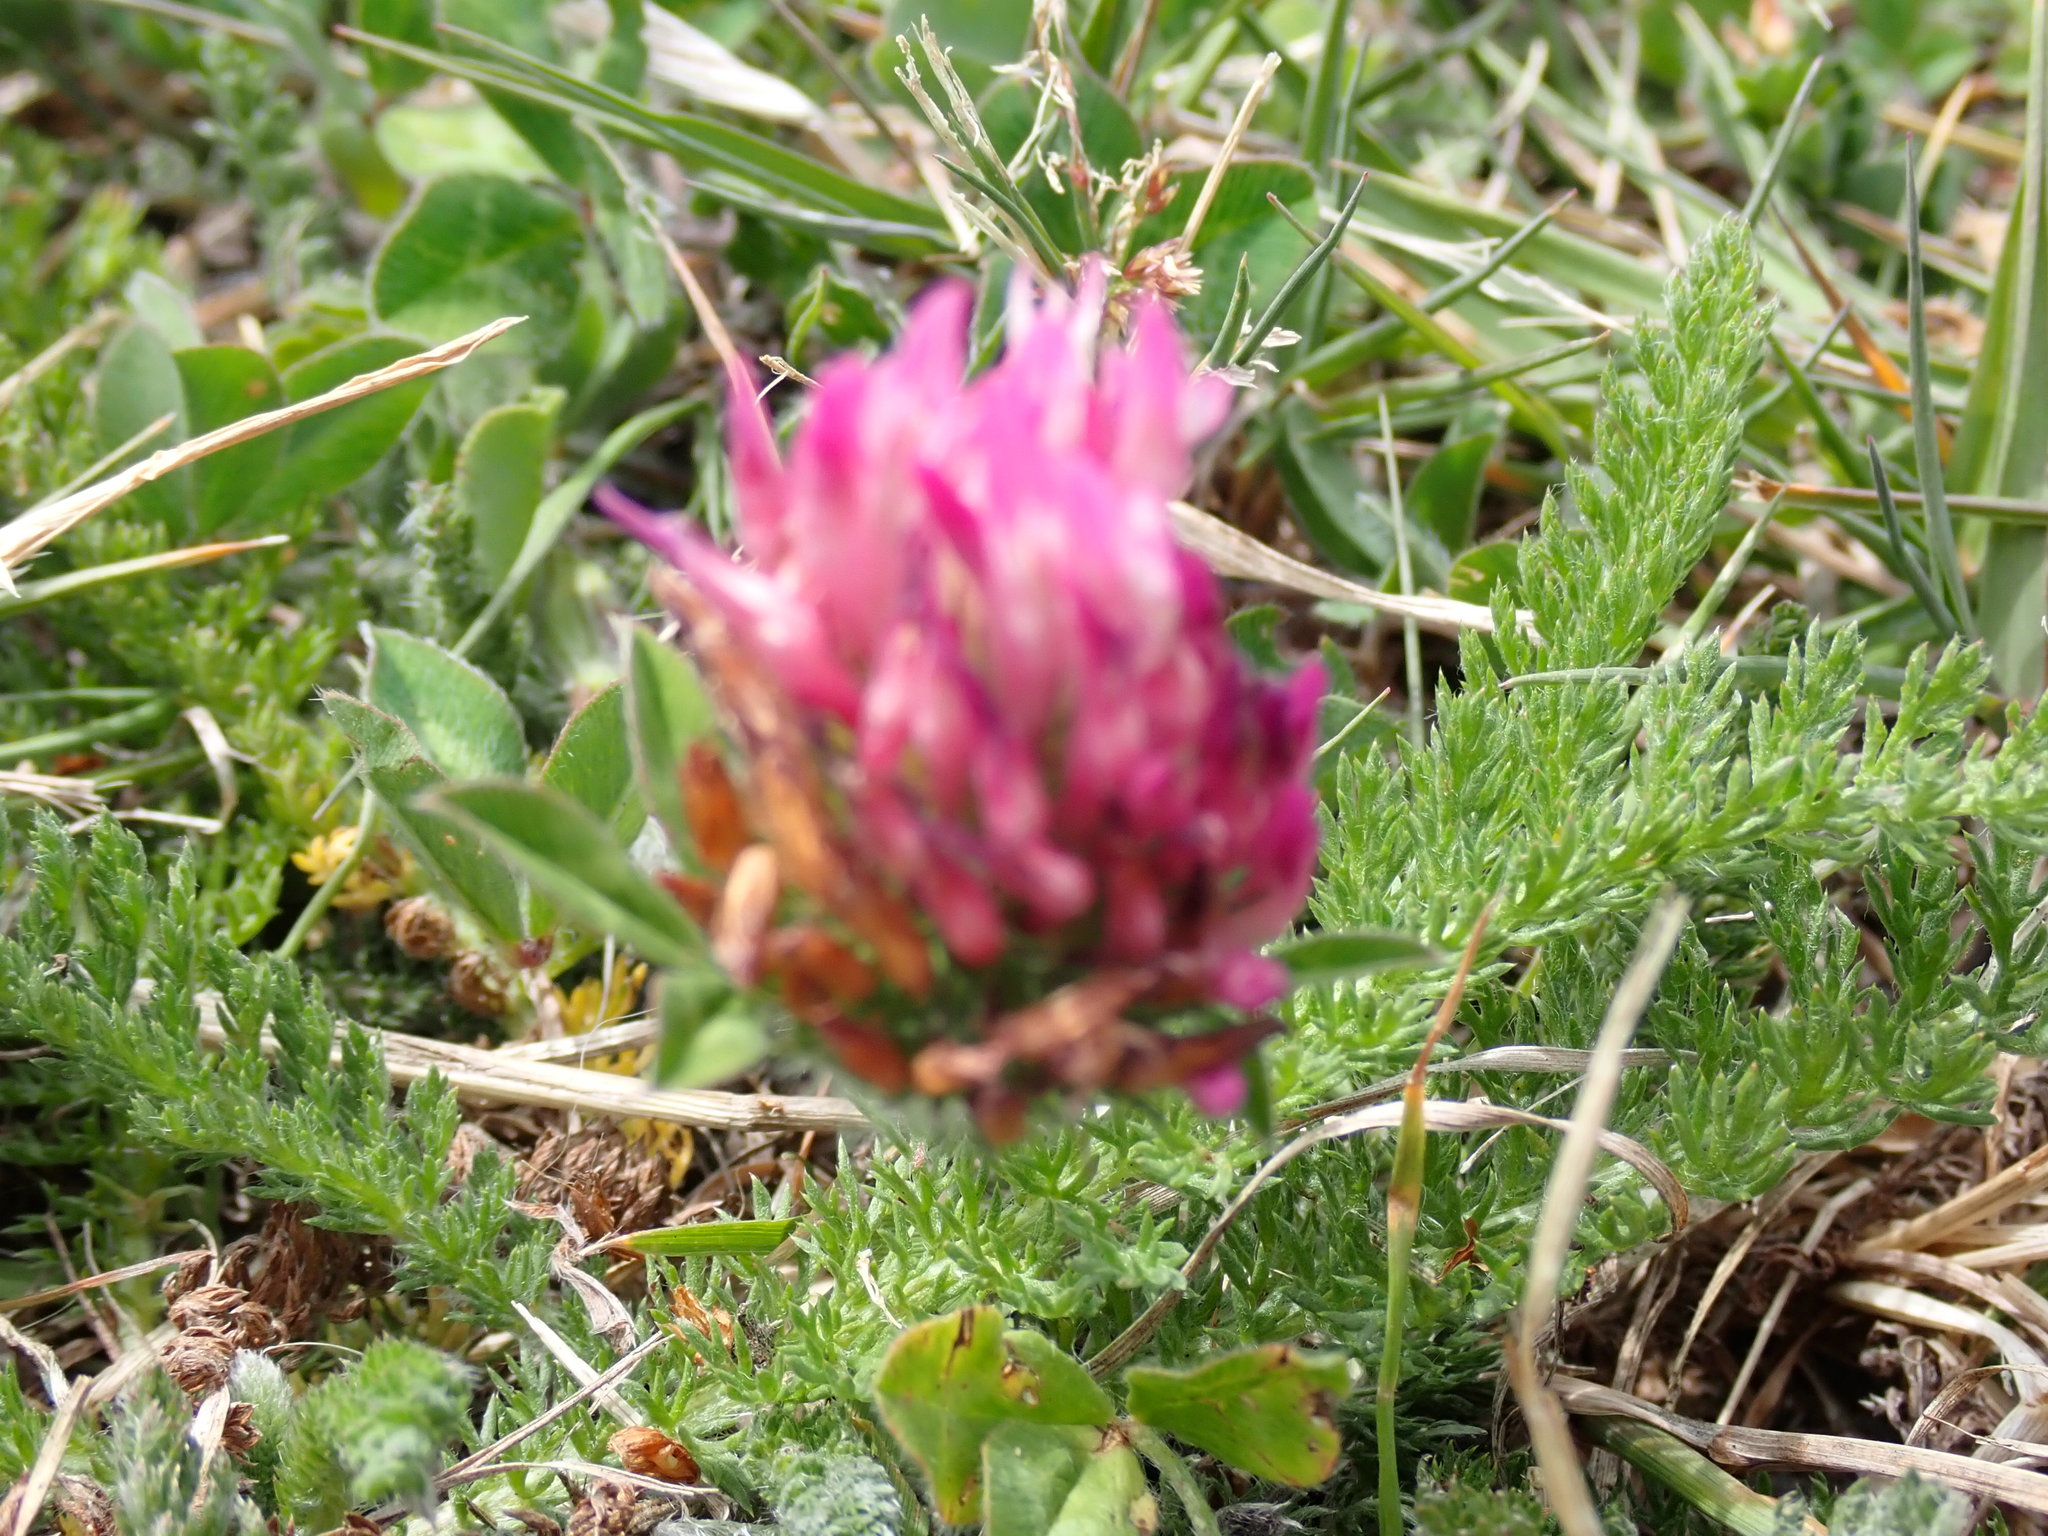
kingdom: Plantae
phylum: Tracheophyta
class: Magnoliopsida
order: Fabales
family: Fabaceae
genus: Trifolium
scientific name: Trifolium pratense
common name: Red clover
